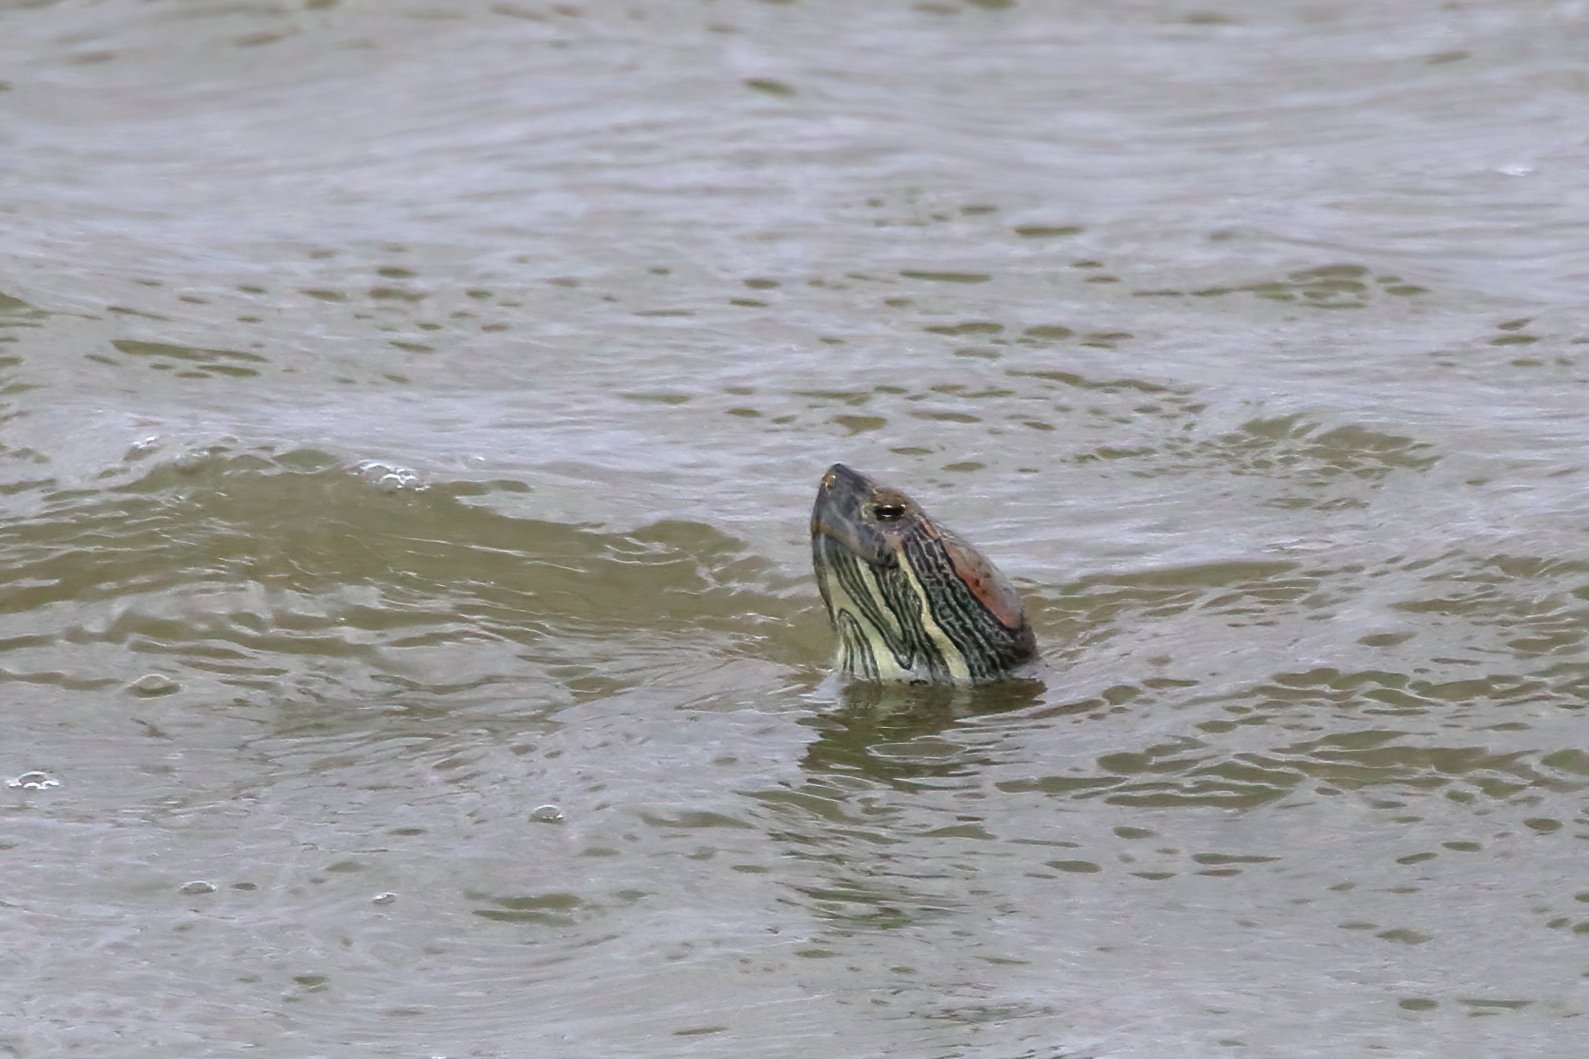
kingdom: Animalia
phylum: Chordata
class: Testudines
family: Emydidae
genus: Trachemys
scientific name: Trachemys scripta
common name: Slider
